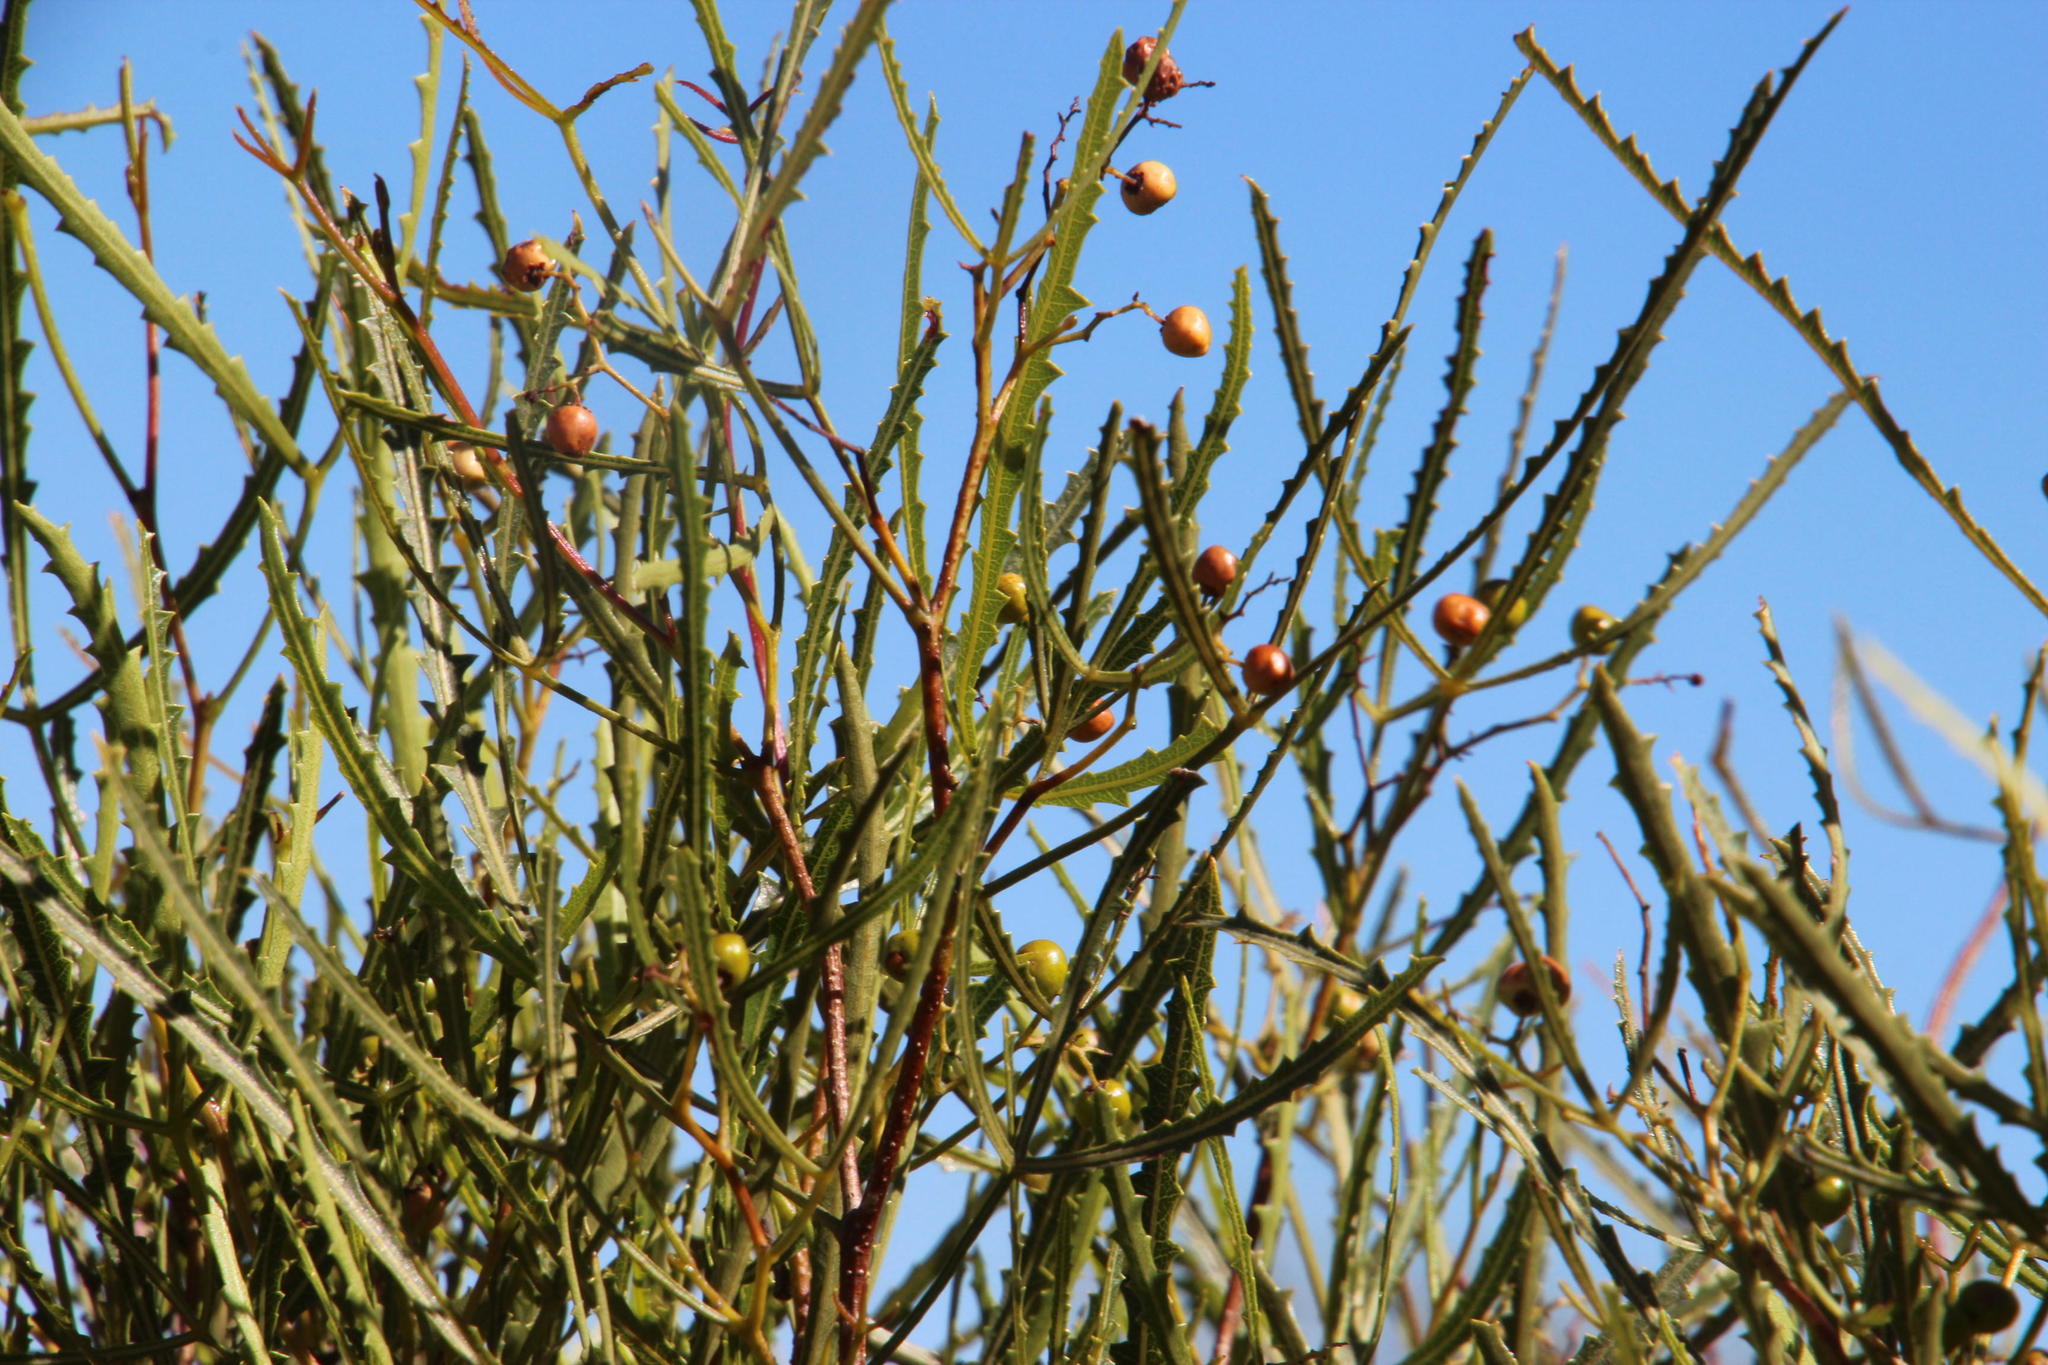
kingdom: Plantae
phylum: Tracheophyta
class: Magnoliopsida
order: Sapindales
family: Anacardiaceae
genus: Searsia
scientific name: Searsia erosa
